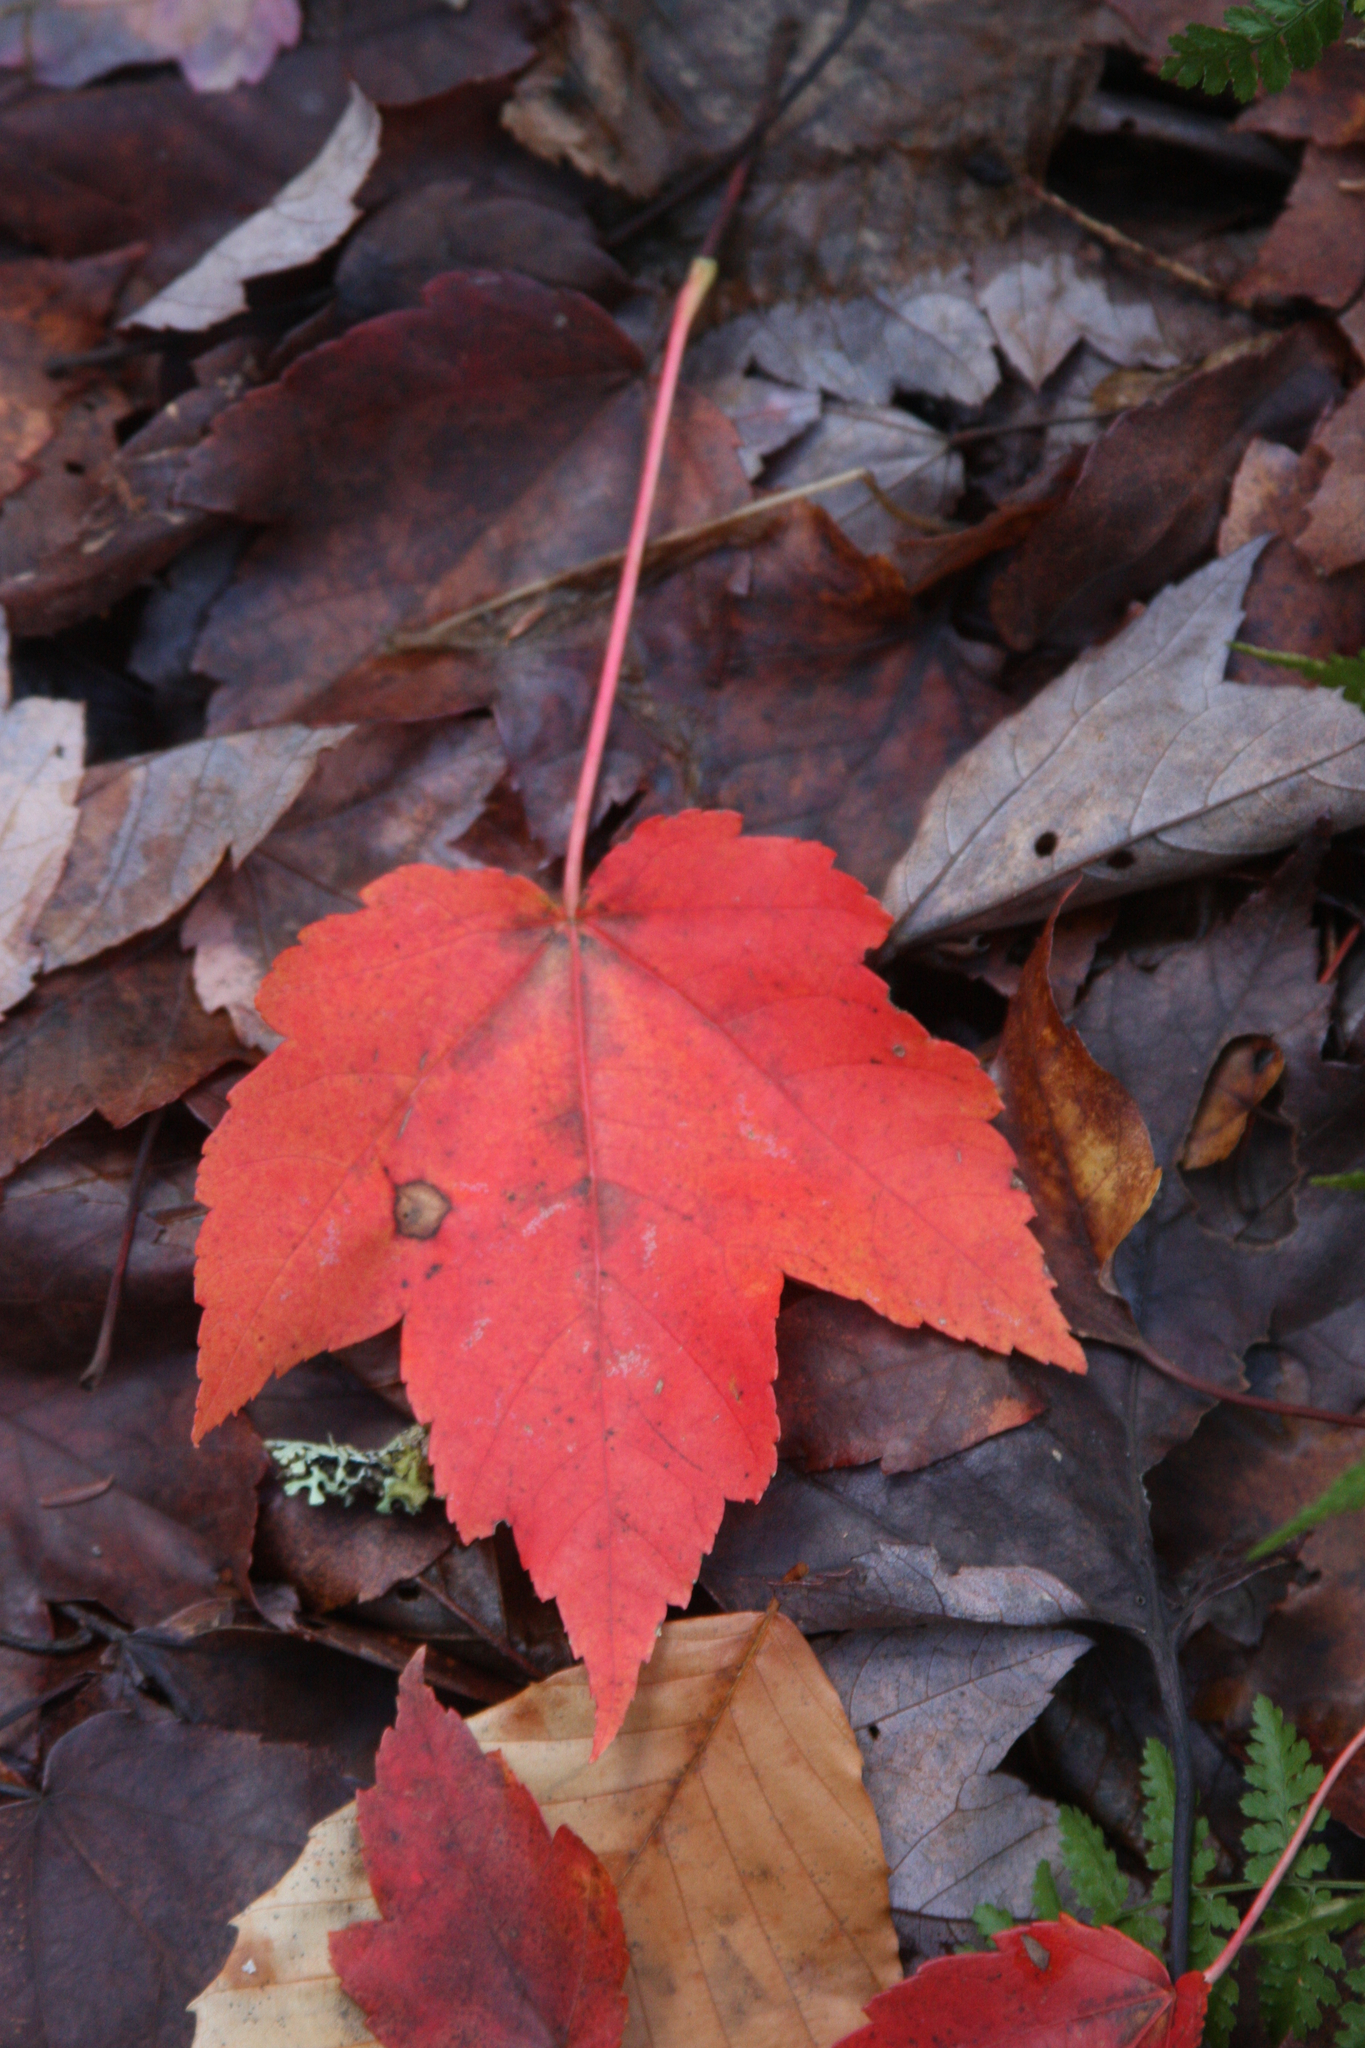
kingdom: Plantae
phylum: Tracheophyta
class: Magnoliopsida
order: Sapindales
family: Sapindaceae
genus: Acer
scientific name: Acer rubrum
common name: Red maple
